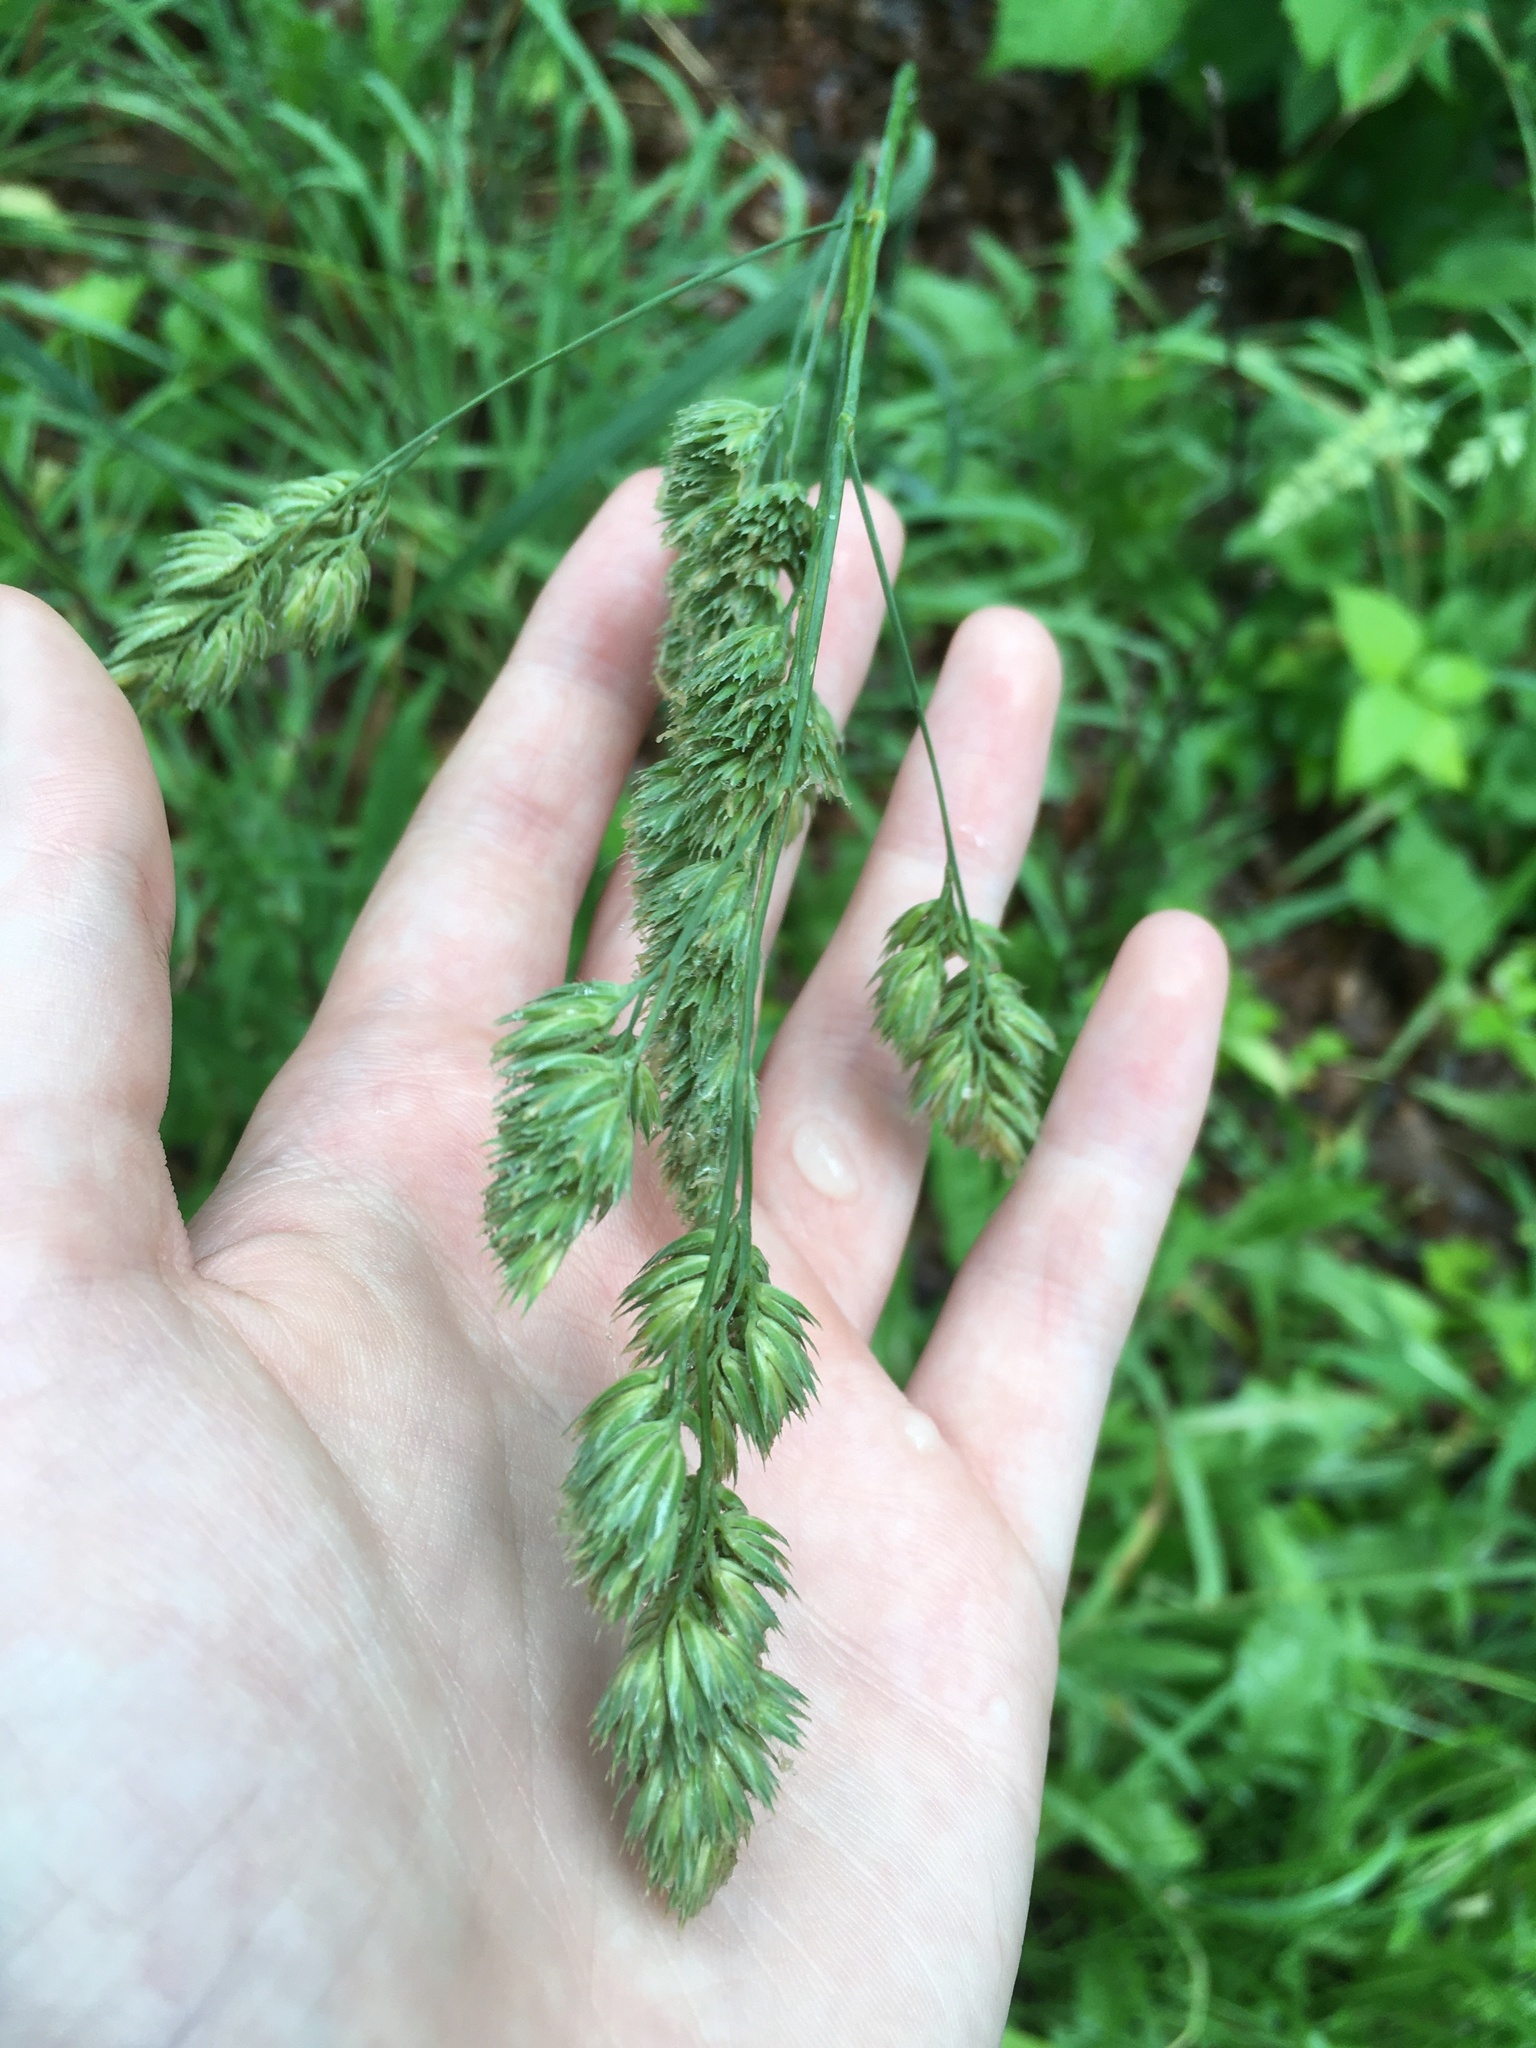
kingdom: Plantae
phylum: Tracheophyta
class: Liliopsida
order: Poales
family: Poaceae
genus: Dactylis
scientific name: Dactylis glomerata
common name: Orchardgrass
